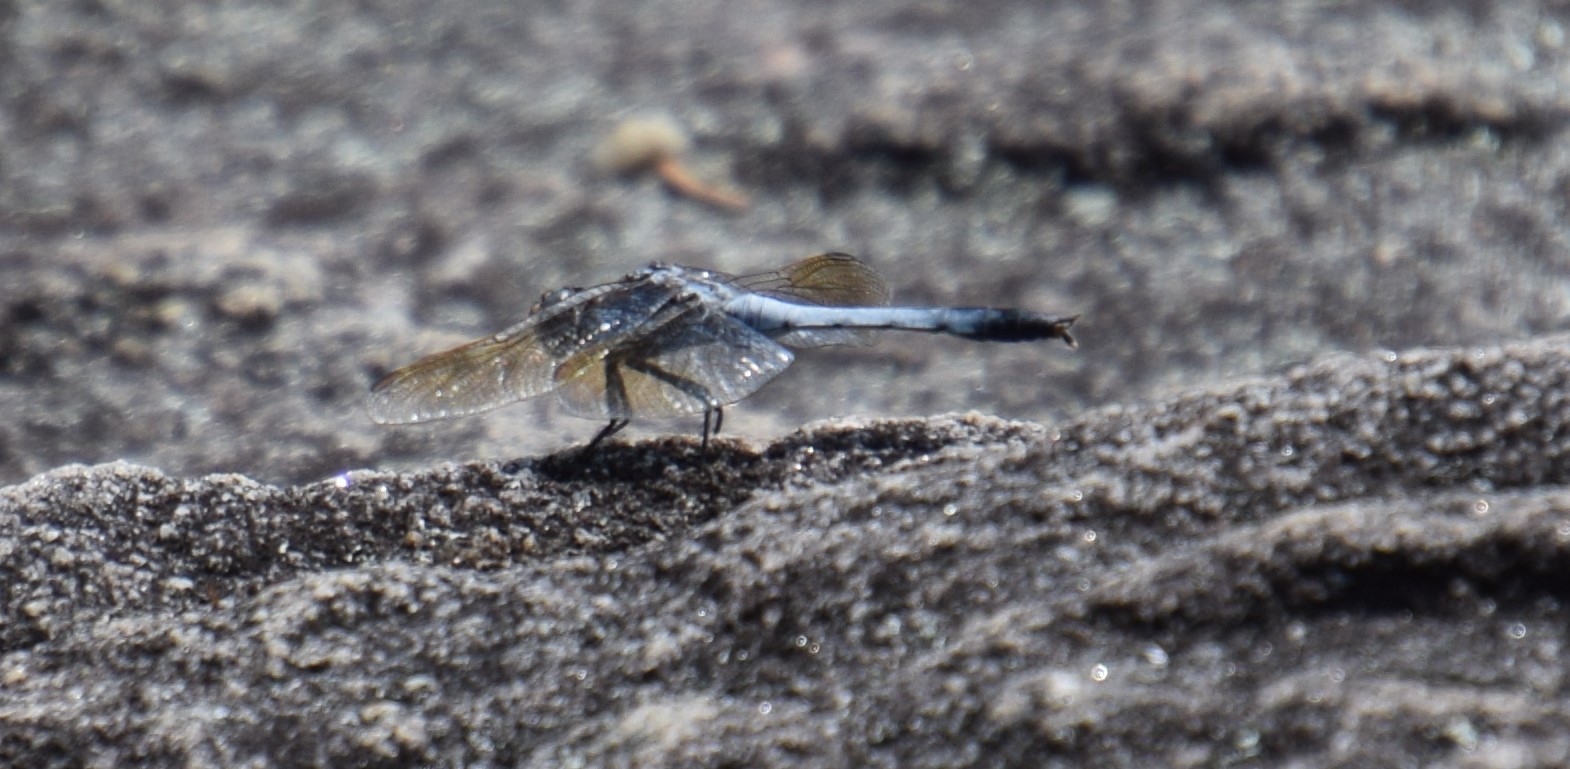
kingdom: Animalia
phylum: Arthropoda
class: Insecta
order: Odonata
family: Libellulidae
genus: Orthetrum
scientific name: Orthetrum caledonicum
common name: Blue skimmer
